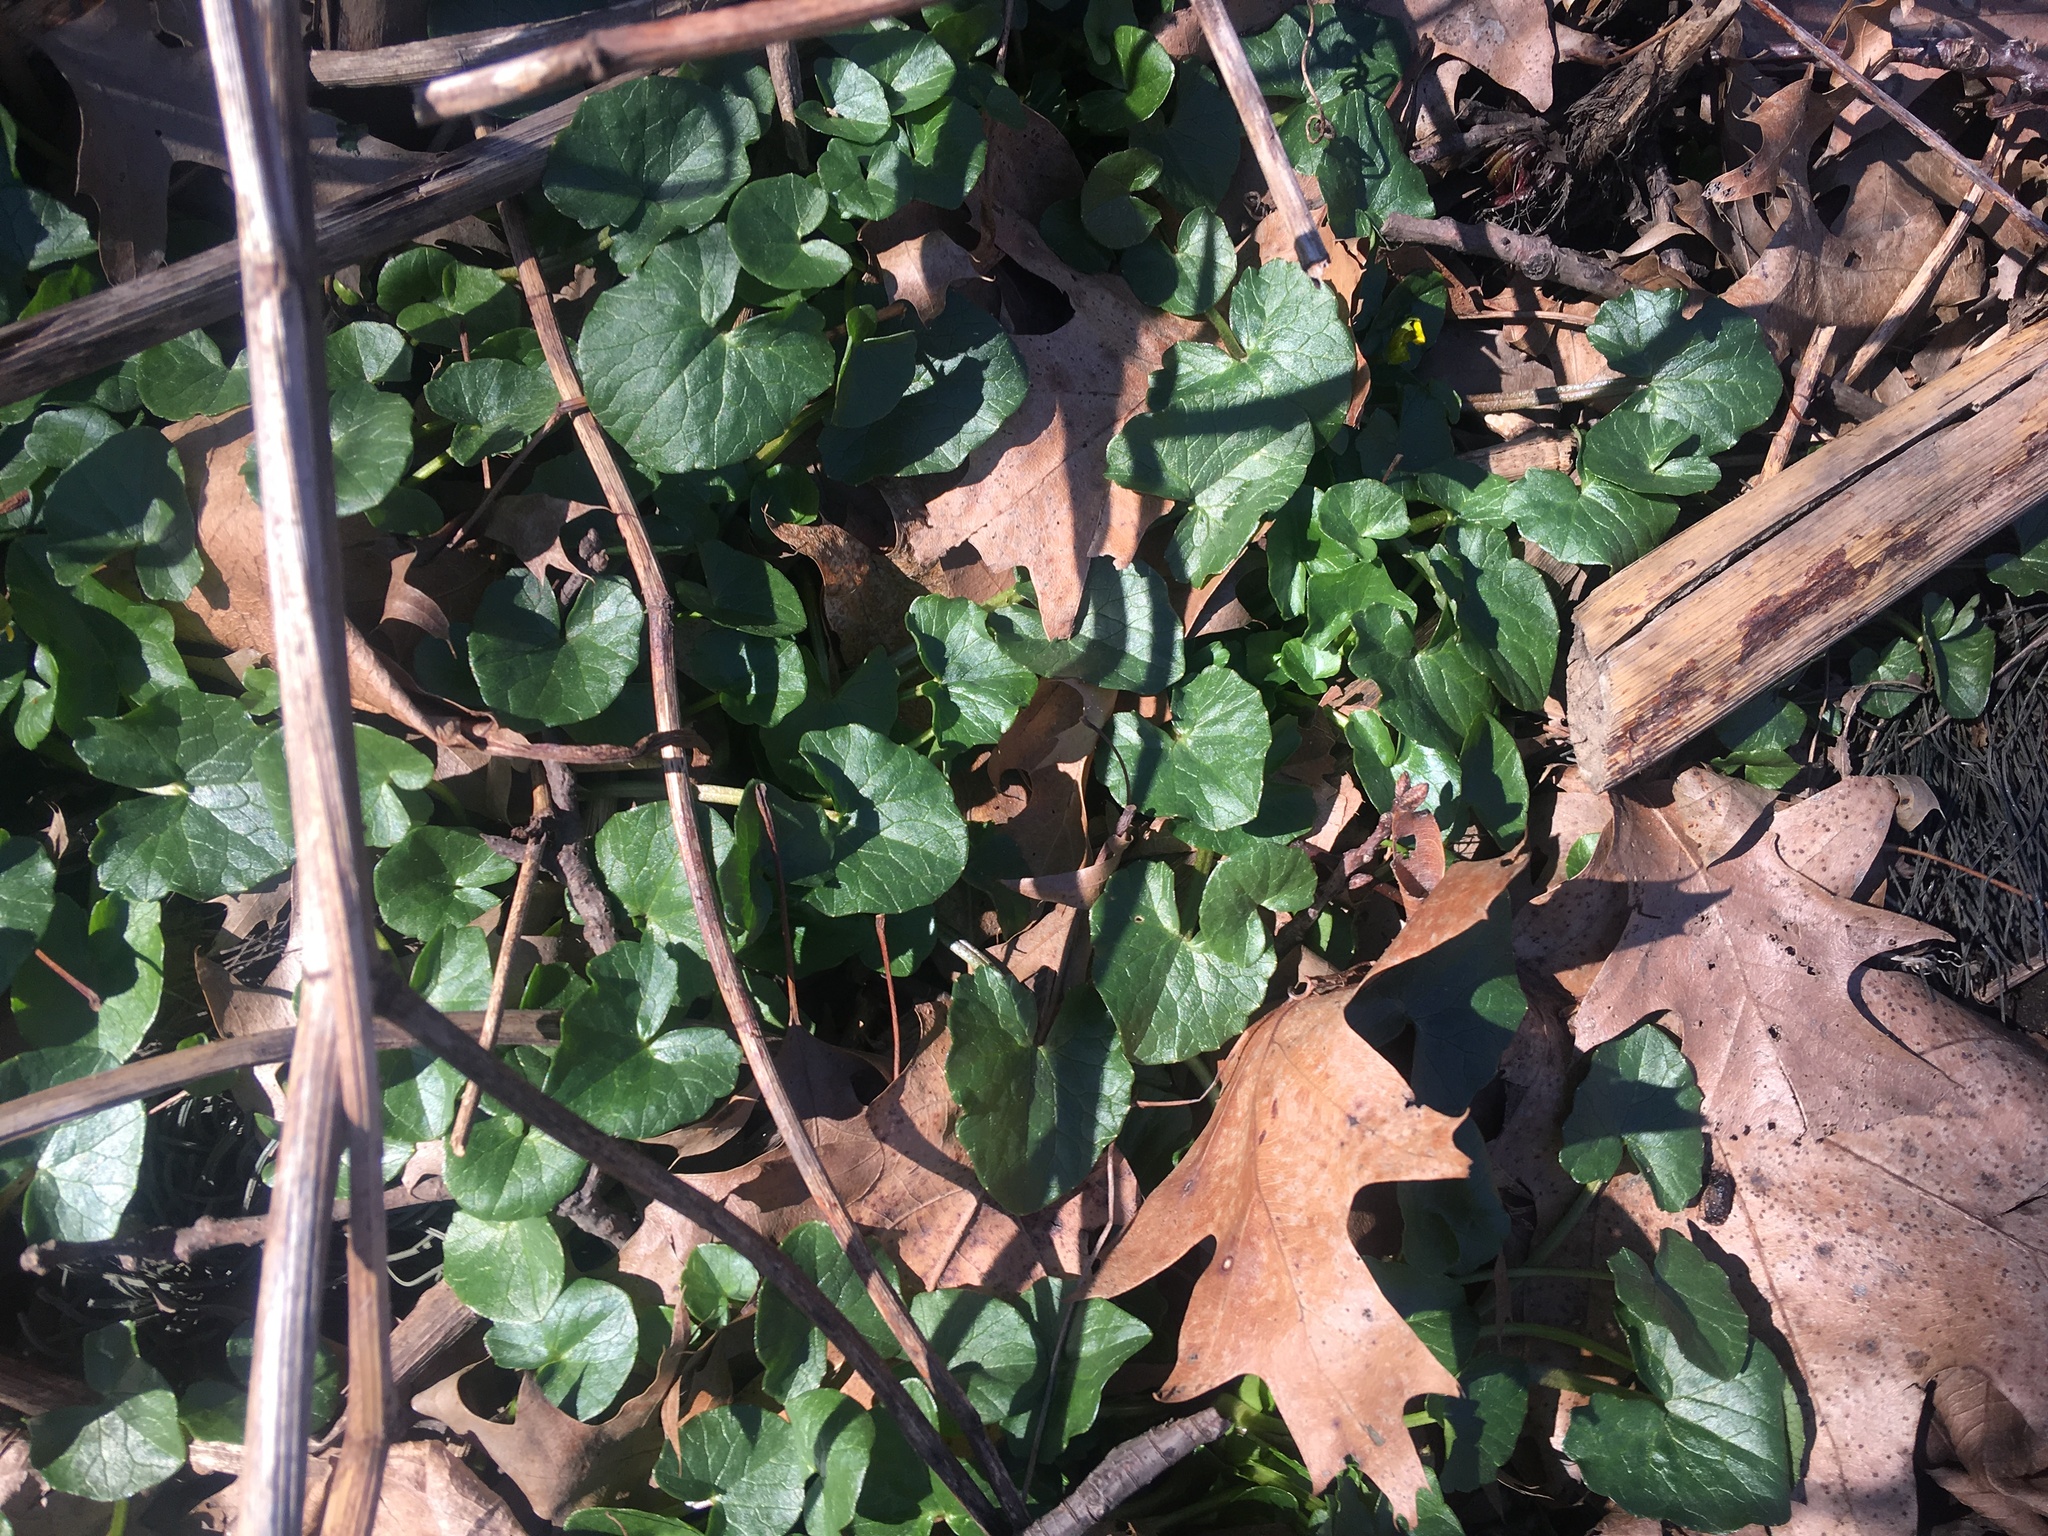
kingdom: Plantae
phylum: Tracheophyta
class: Magnoliopsida
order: Ranunculales
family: Ranunculaceae
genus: Ficaria
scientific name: Ficaria verna
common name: Lesser celandine
